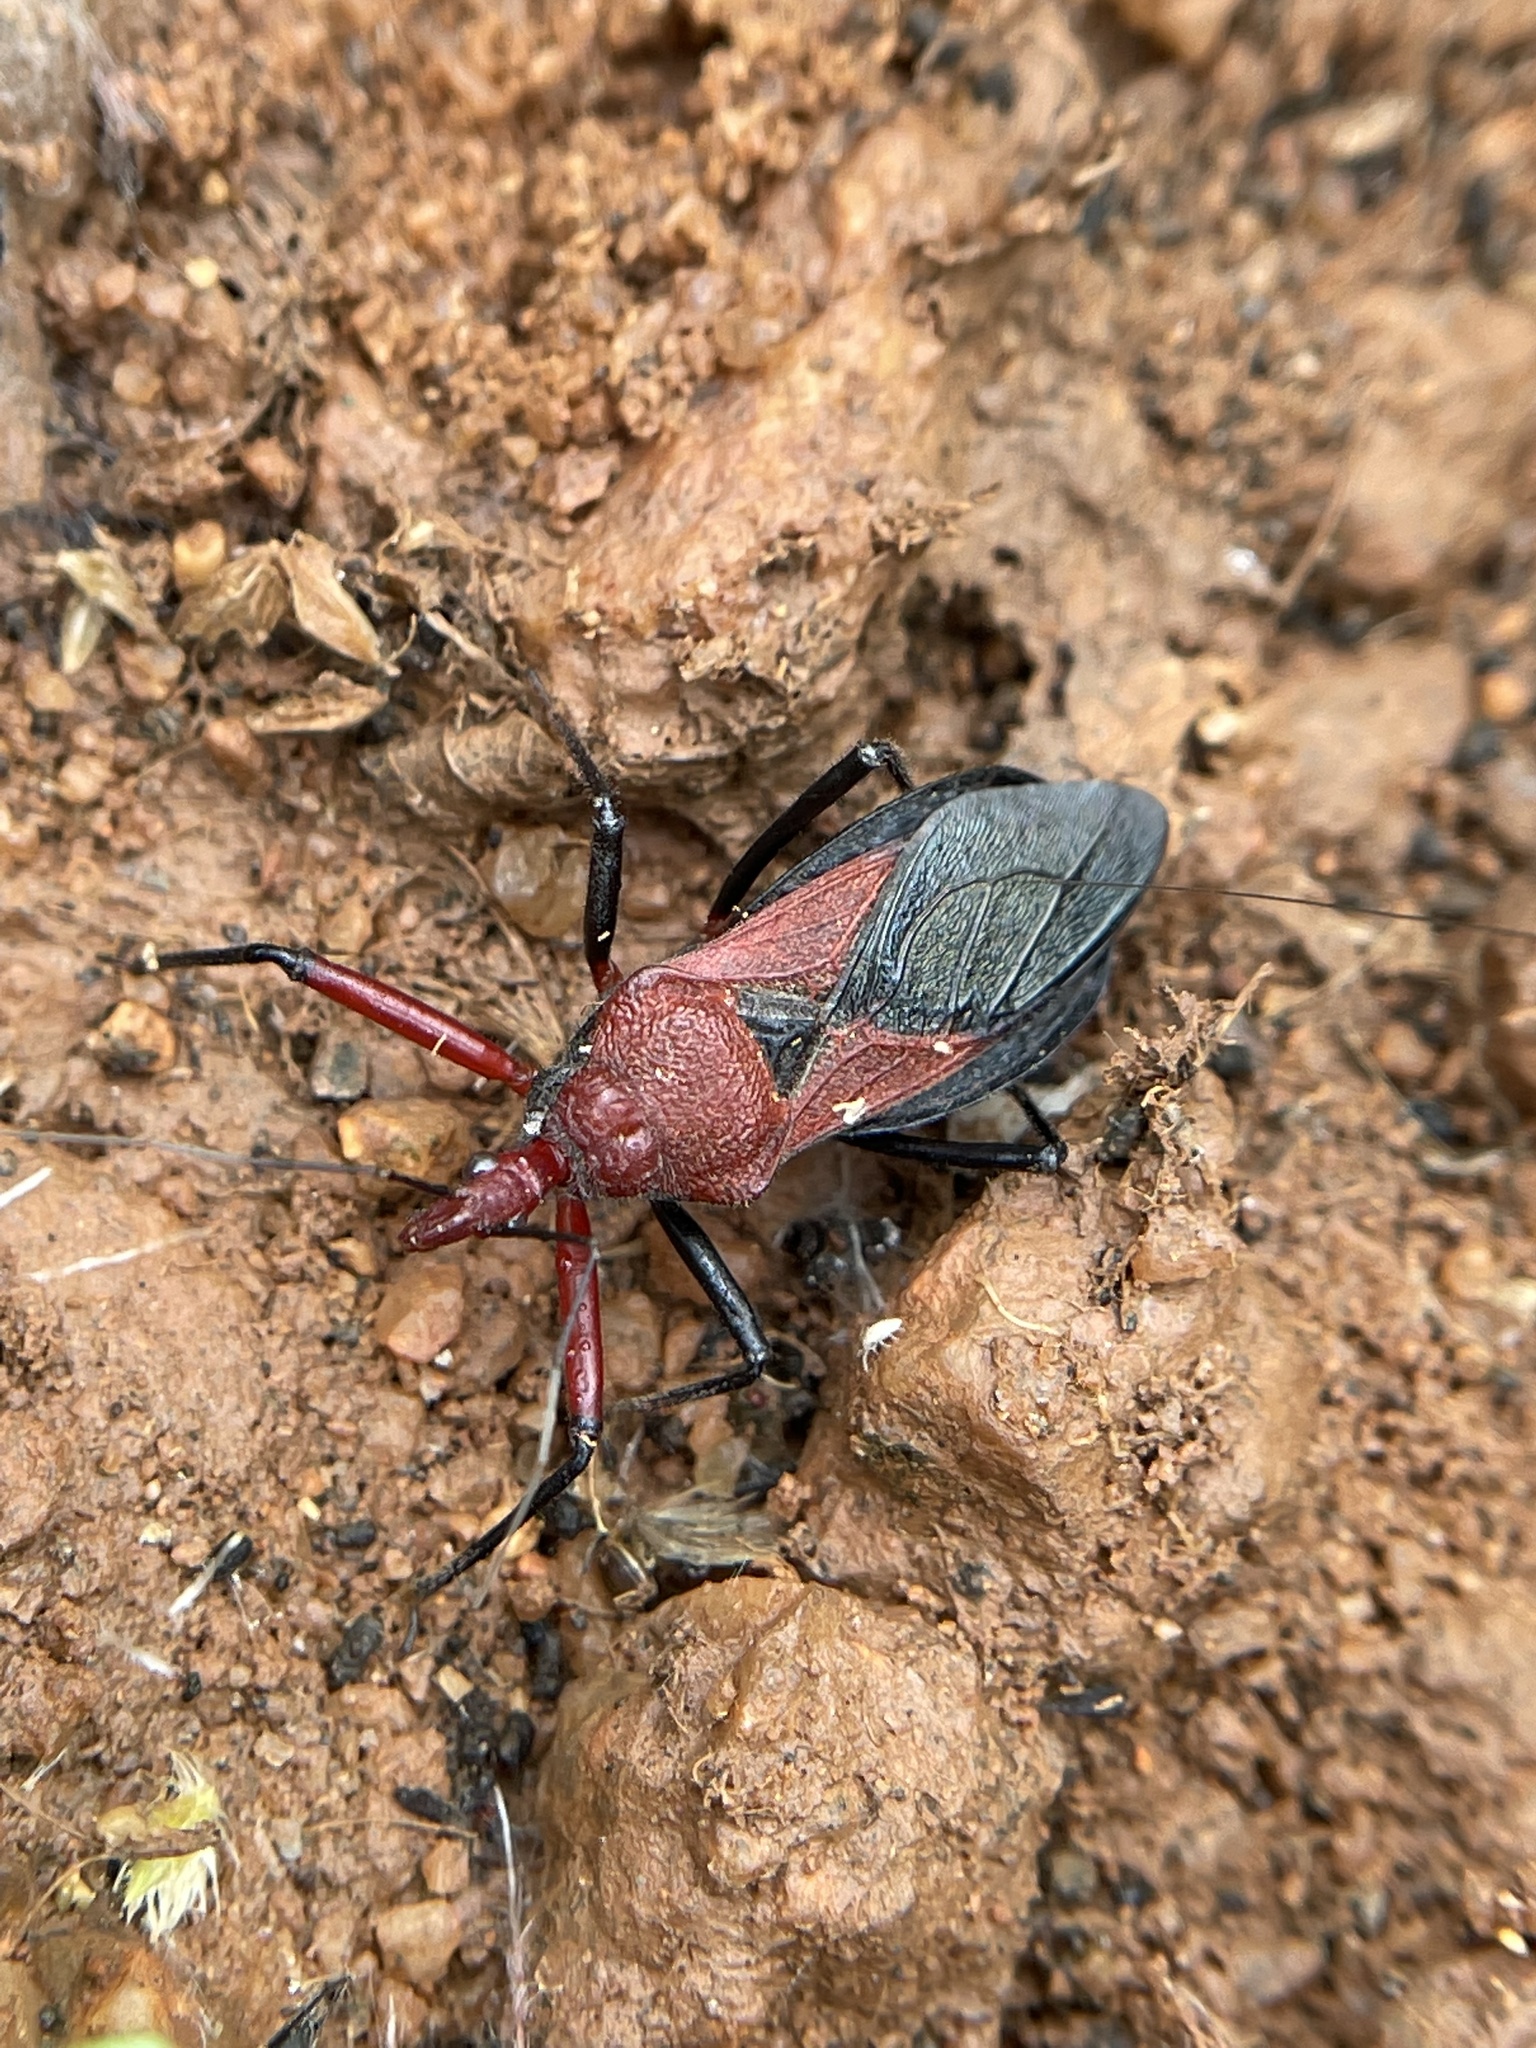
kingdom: Animalia
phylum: Arthropoda
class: Insecta
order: Hemiptera
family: Reduviidae
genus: Rhynocoris
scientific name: Rhynocoris marginatus
